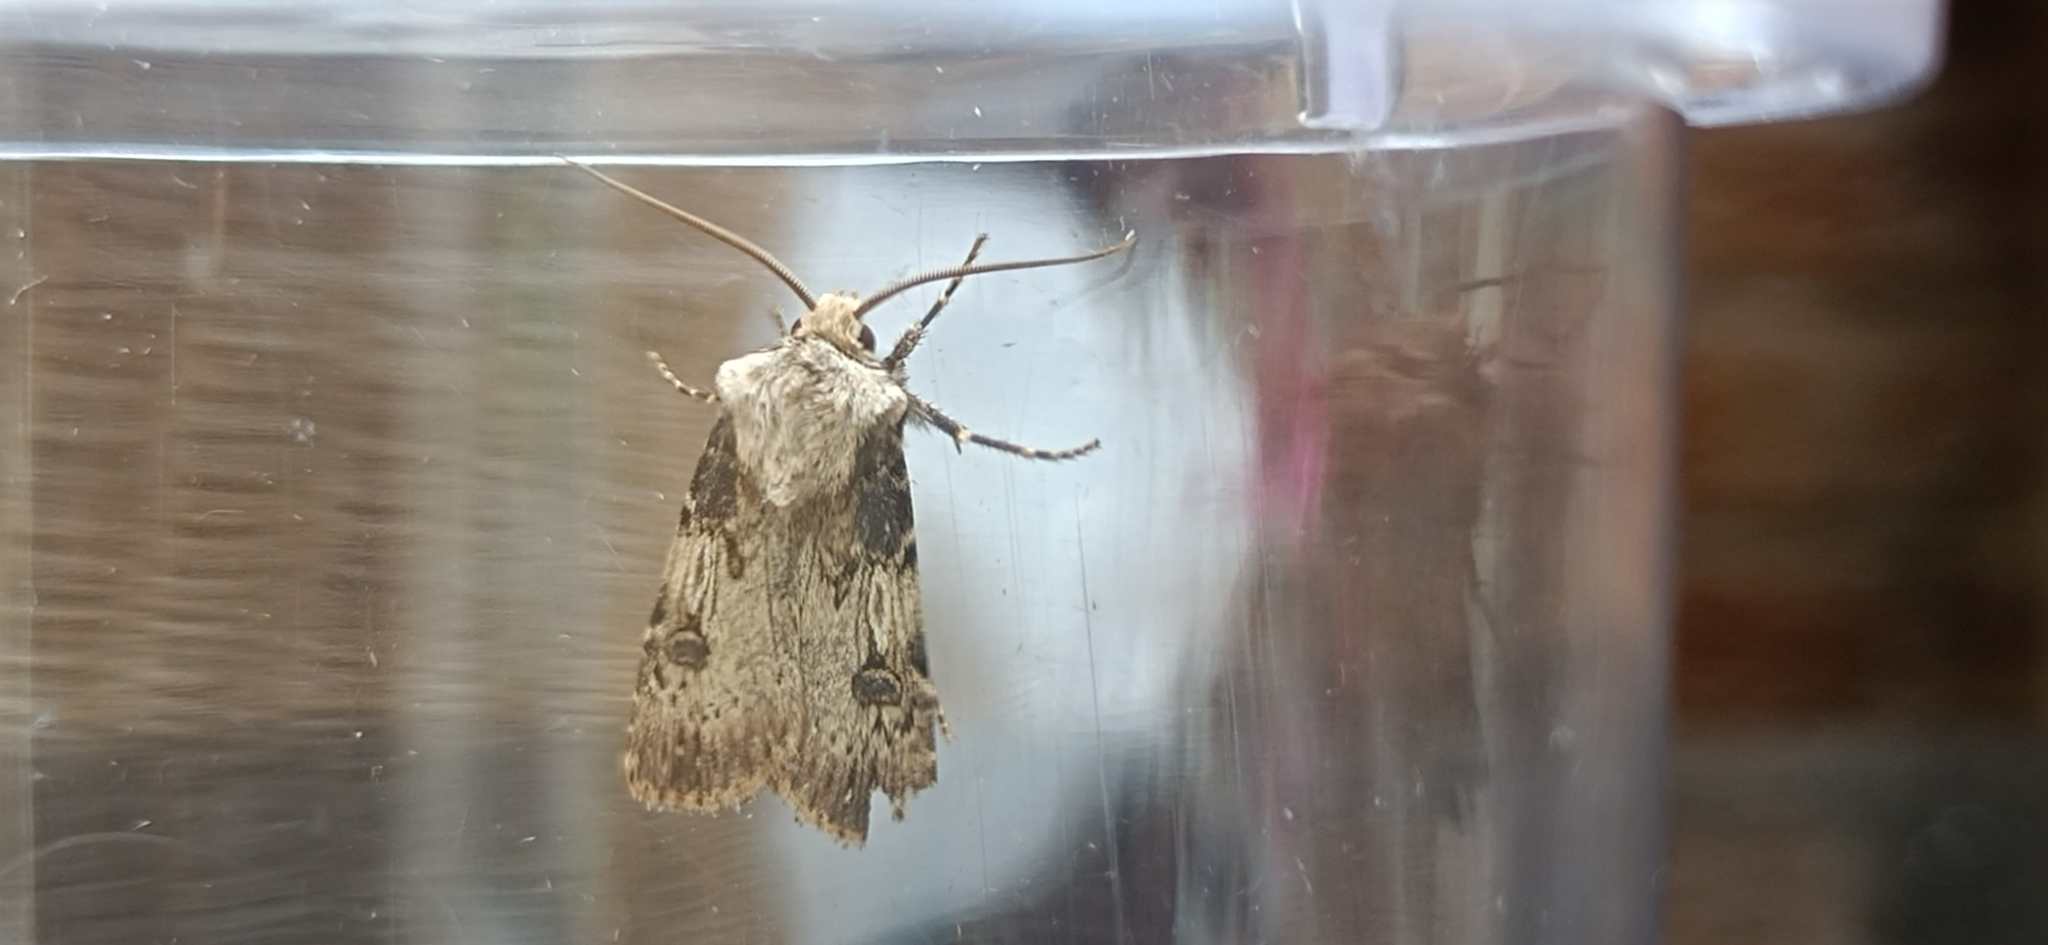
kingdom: Animalia
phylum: Arthropoda
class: Insecta
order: Lepidoptera
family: Noctuidae
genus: Agrotis
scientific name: Agrotis puta
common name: Shuttle-shaped dart
